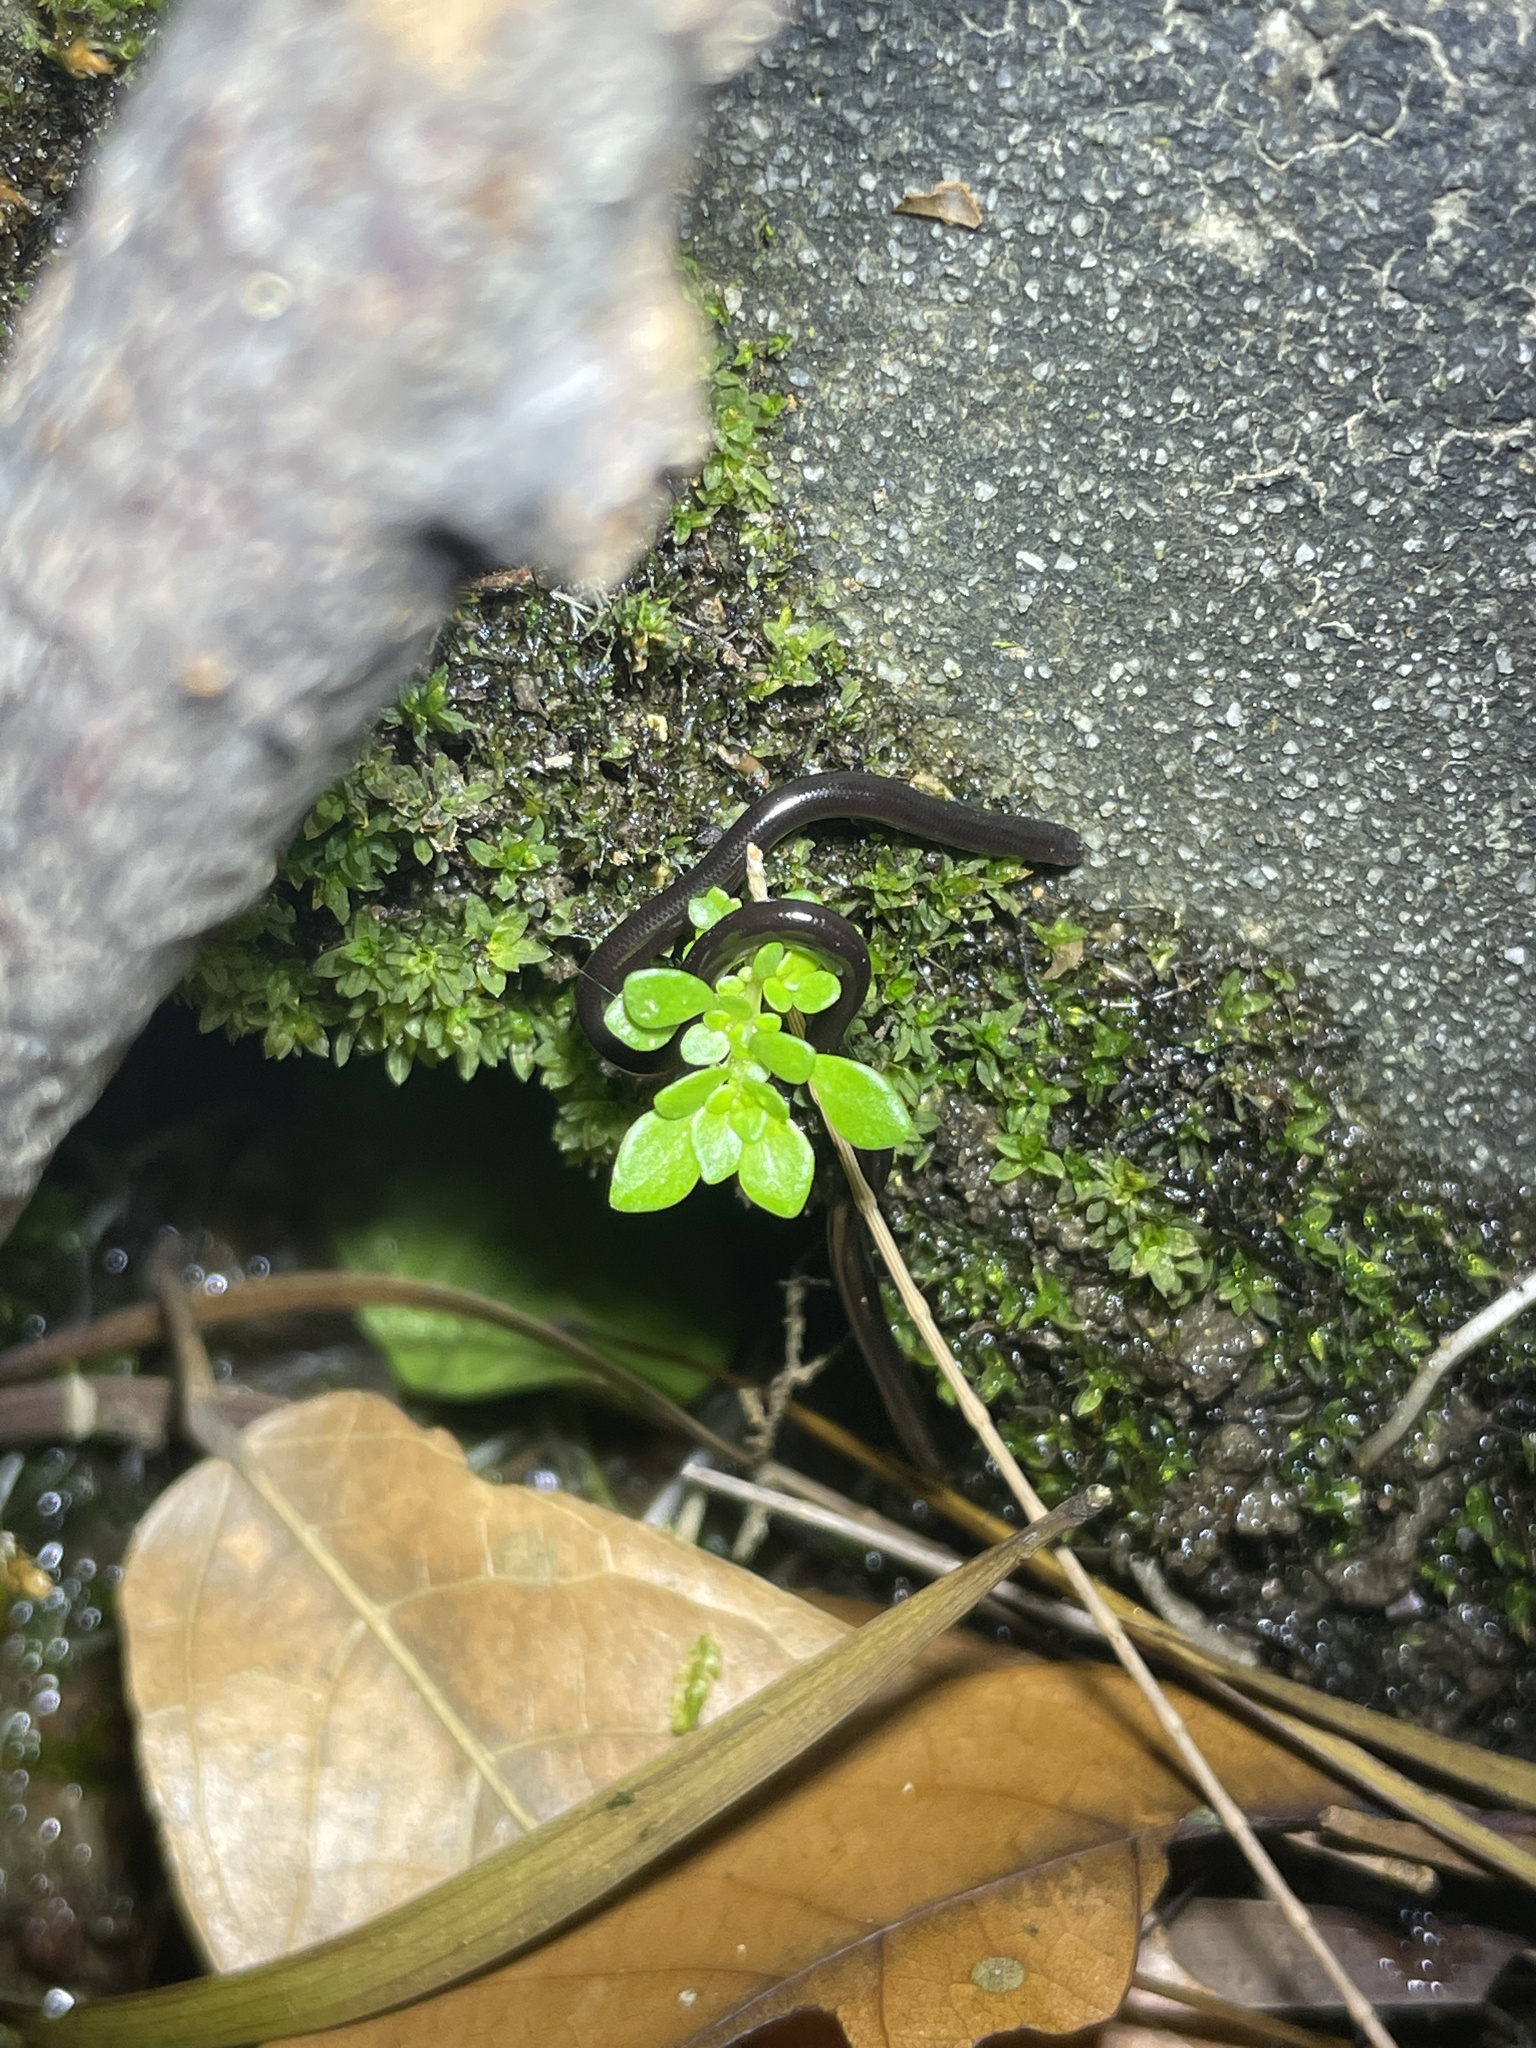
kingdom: Animalia
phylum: Chordata
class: Squamata
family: Typhlopidae
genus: Indotyphlops
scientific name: Indotyphlops braminus
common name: Brahminy blindsnake
